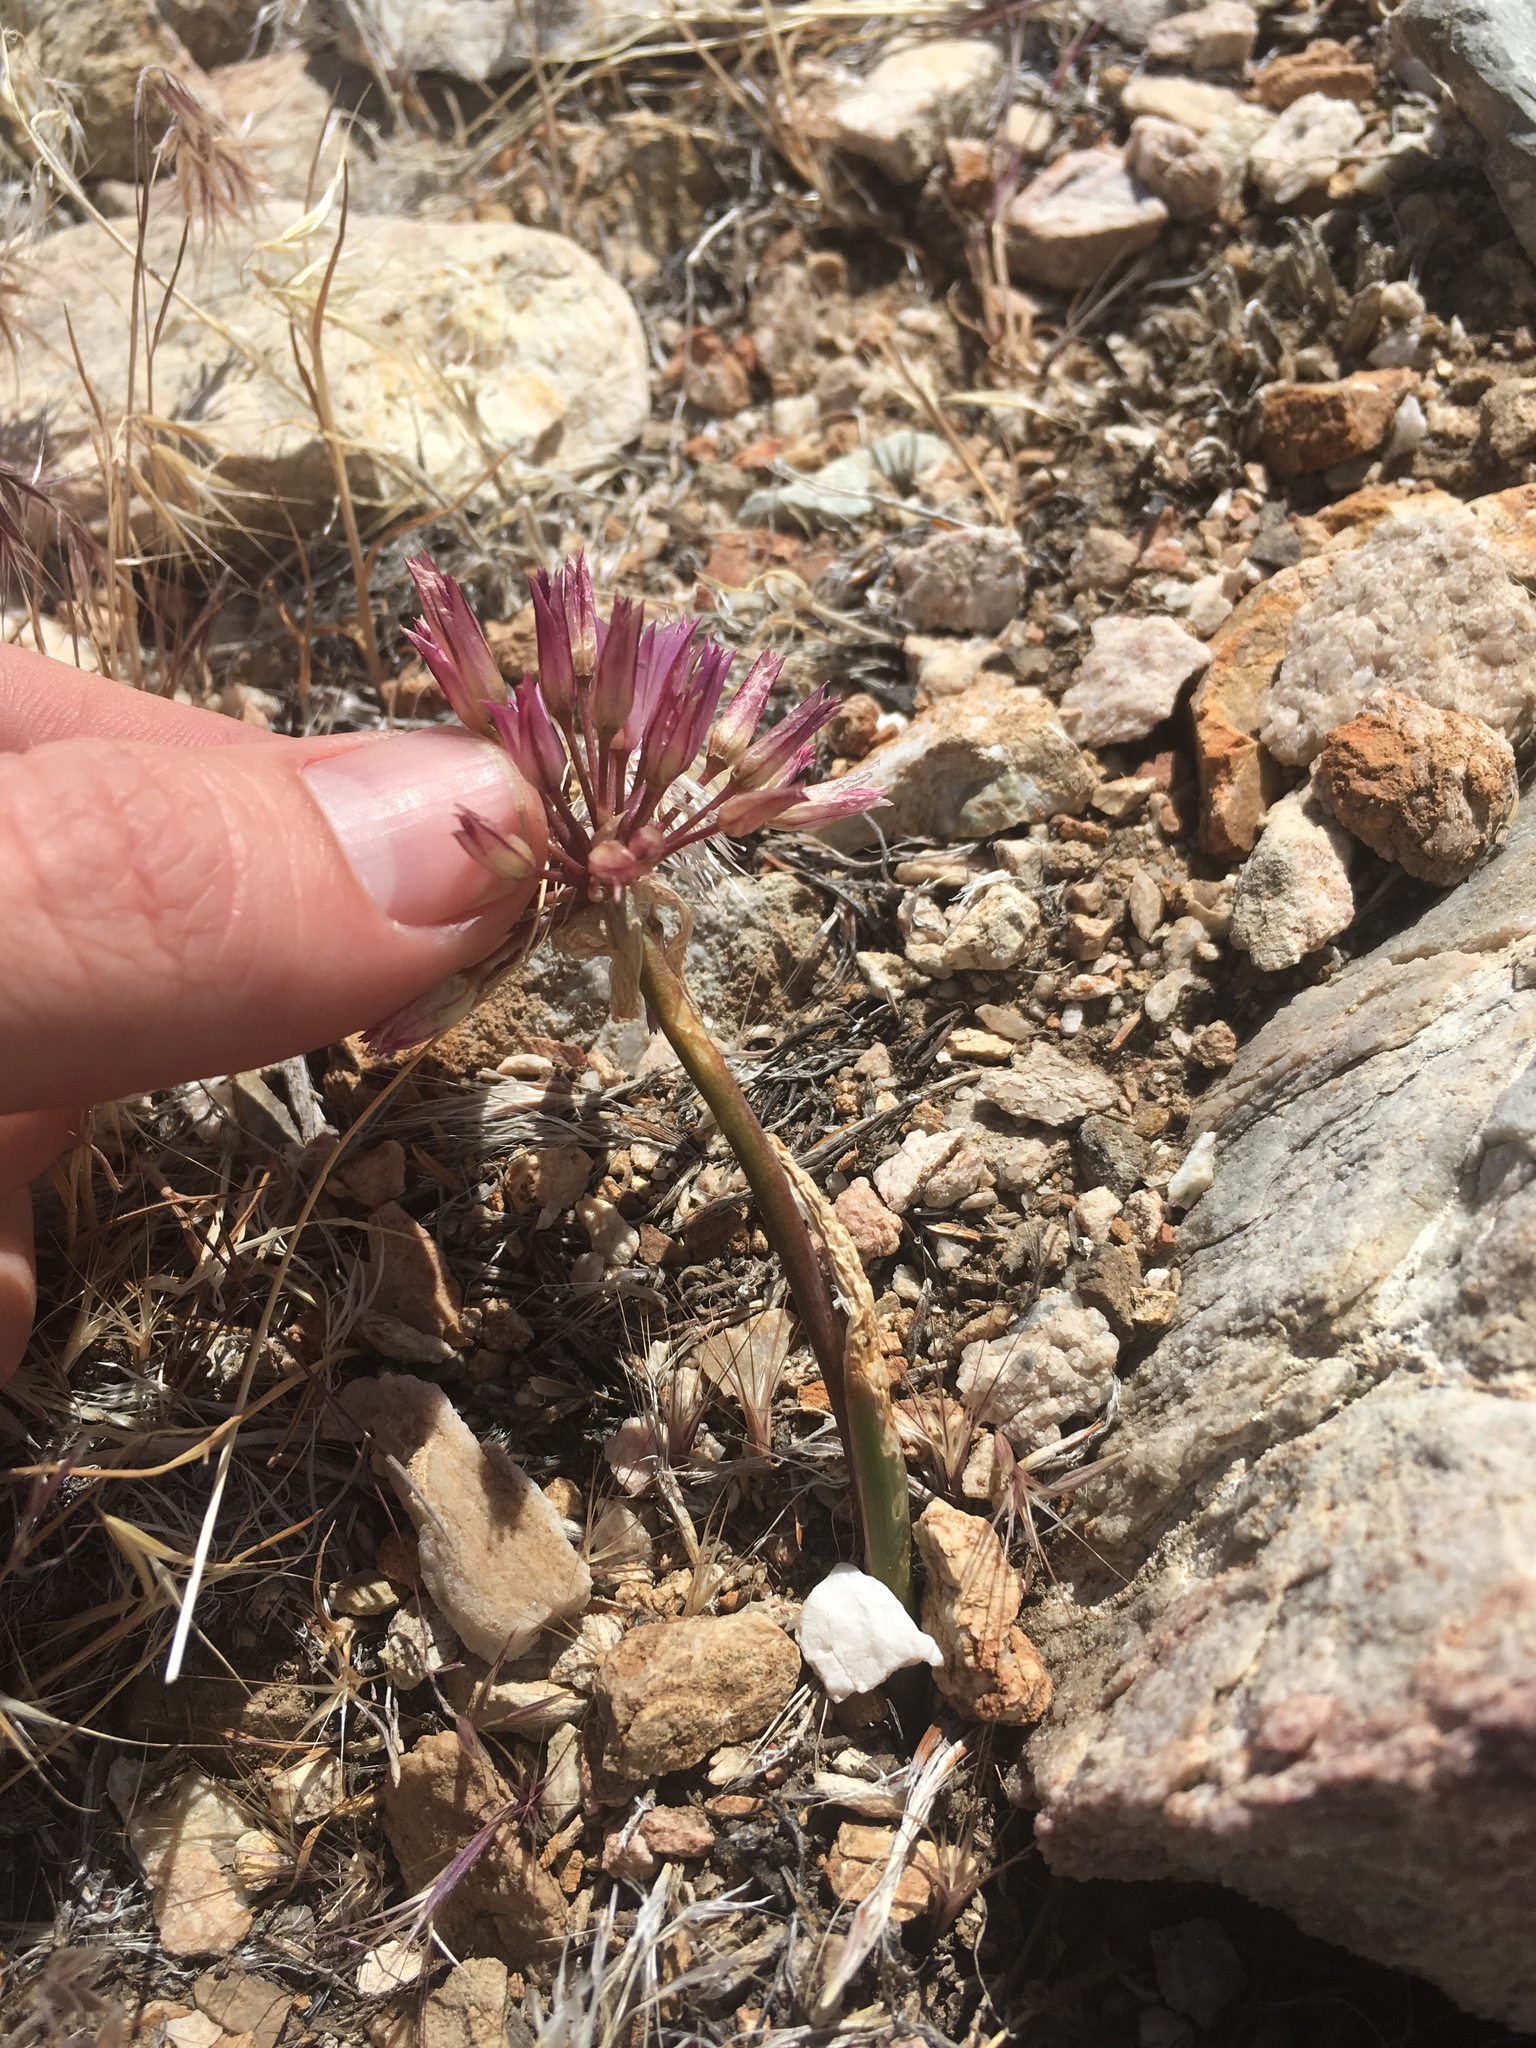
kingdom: Plantae
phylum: Tracheophyta
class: Liliopsida
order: Asparagales
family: Amaryllidaceae
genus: Allium
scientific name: Allium atrorubens
